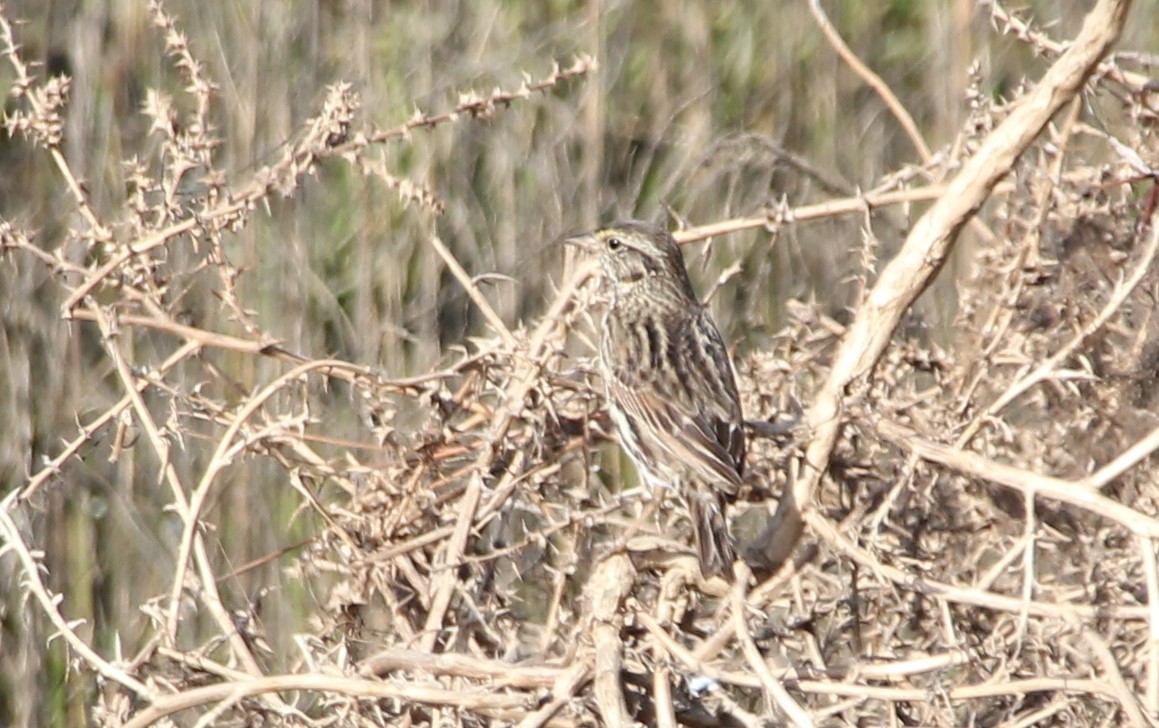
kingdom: Animalia
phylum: Chordata
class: Aves
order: Passeriformes
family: Passerellidae
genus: Passerculus
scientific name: Passerculus sandwichensis
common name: Savannah sparrow
